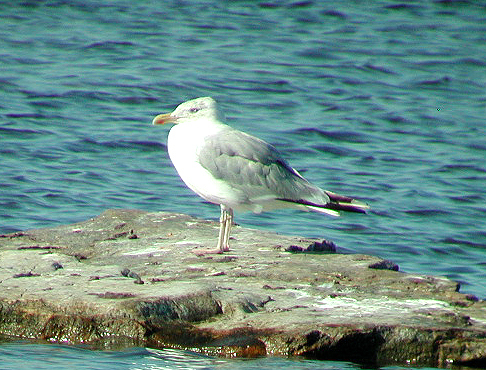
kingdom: Animalia
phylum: Chordata
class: Aves
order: Charadriiformes
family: Laridae
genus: Larus
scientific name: Larus argentatus
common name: Herring gull
